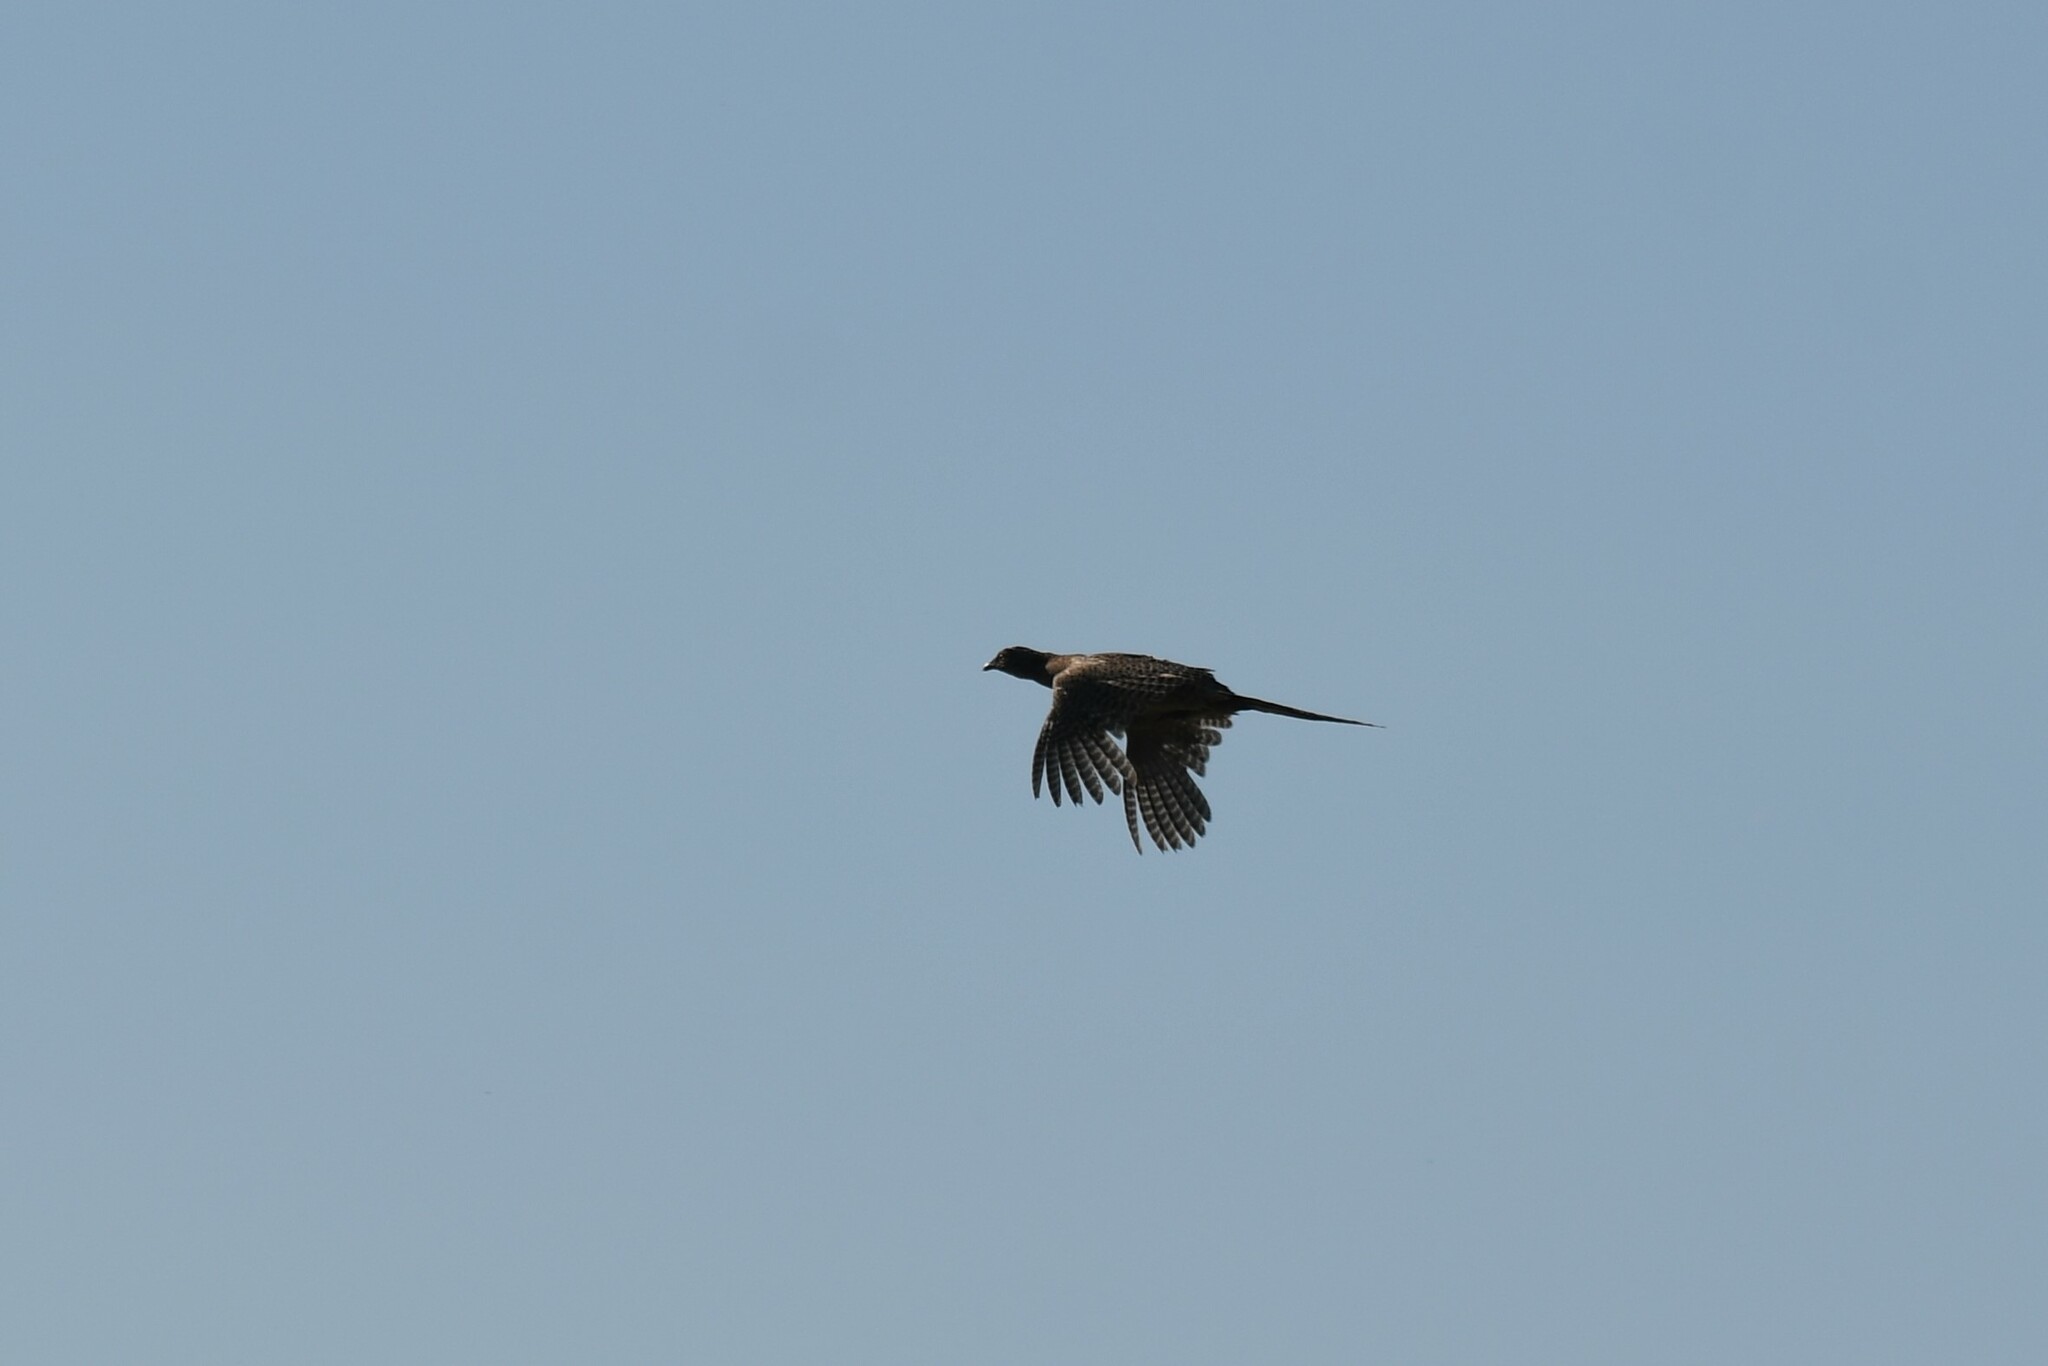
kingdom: Animalia
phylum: Chordata
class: Aves
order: Galliformes
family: Phasianidae
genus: Phasianus
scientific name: Phasianus colchicus
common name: Common pheasant
